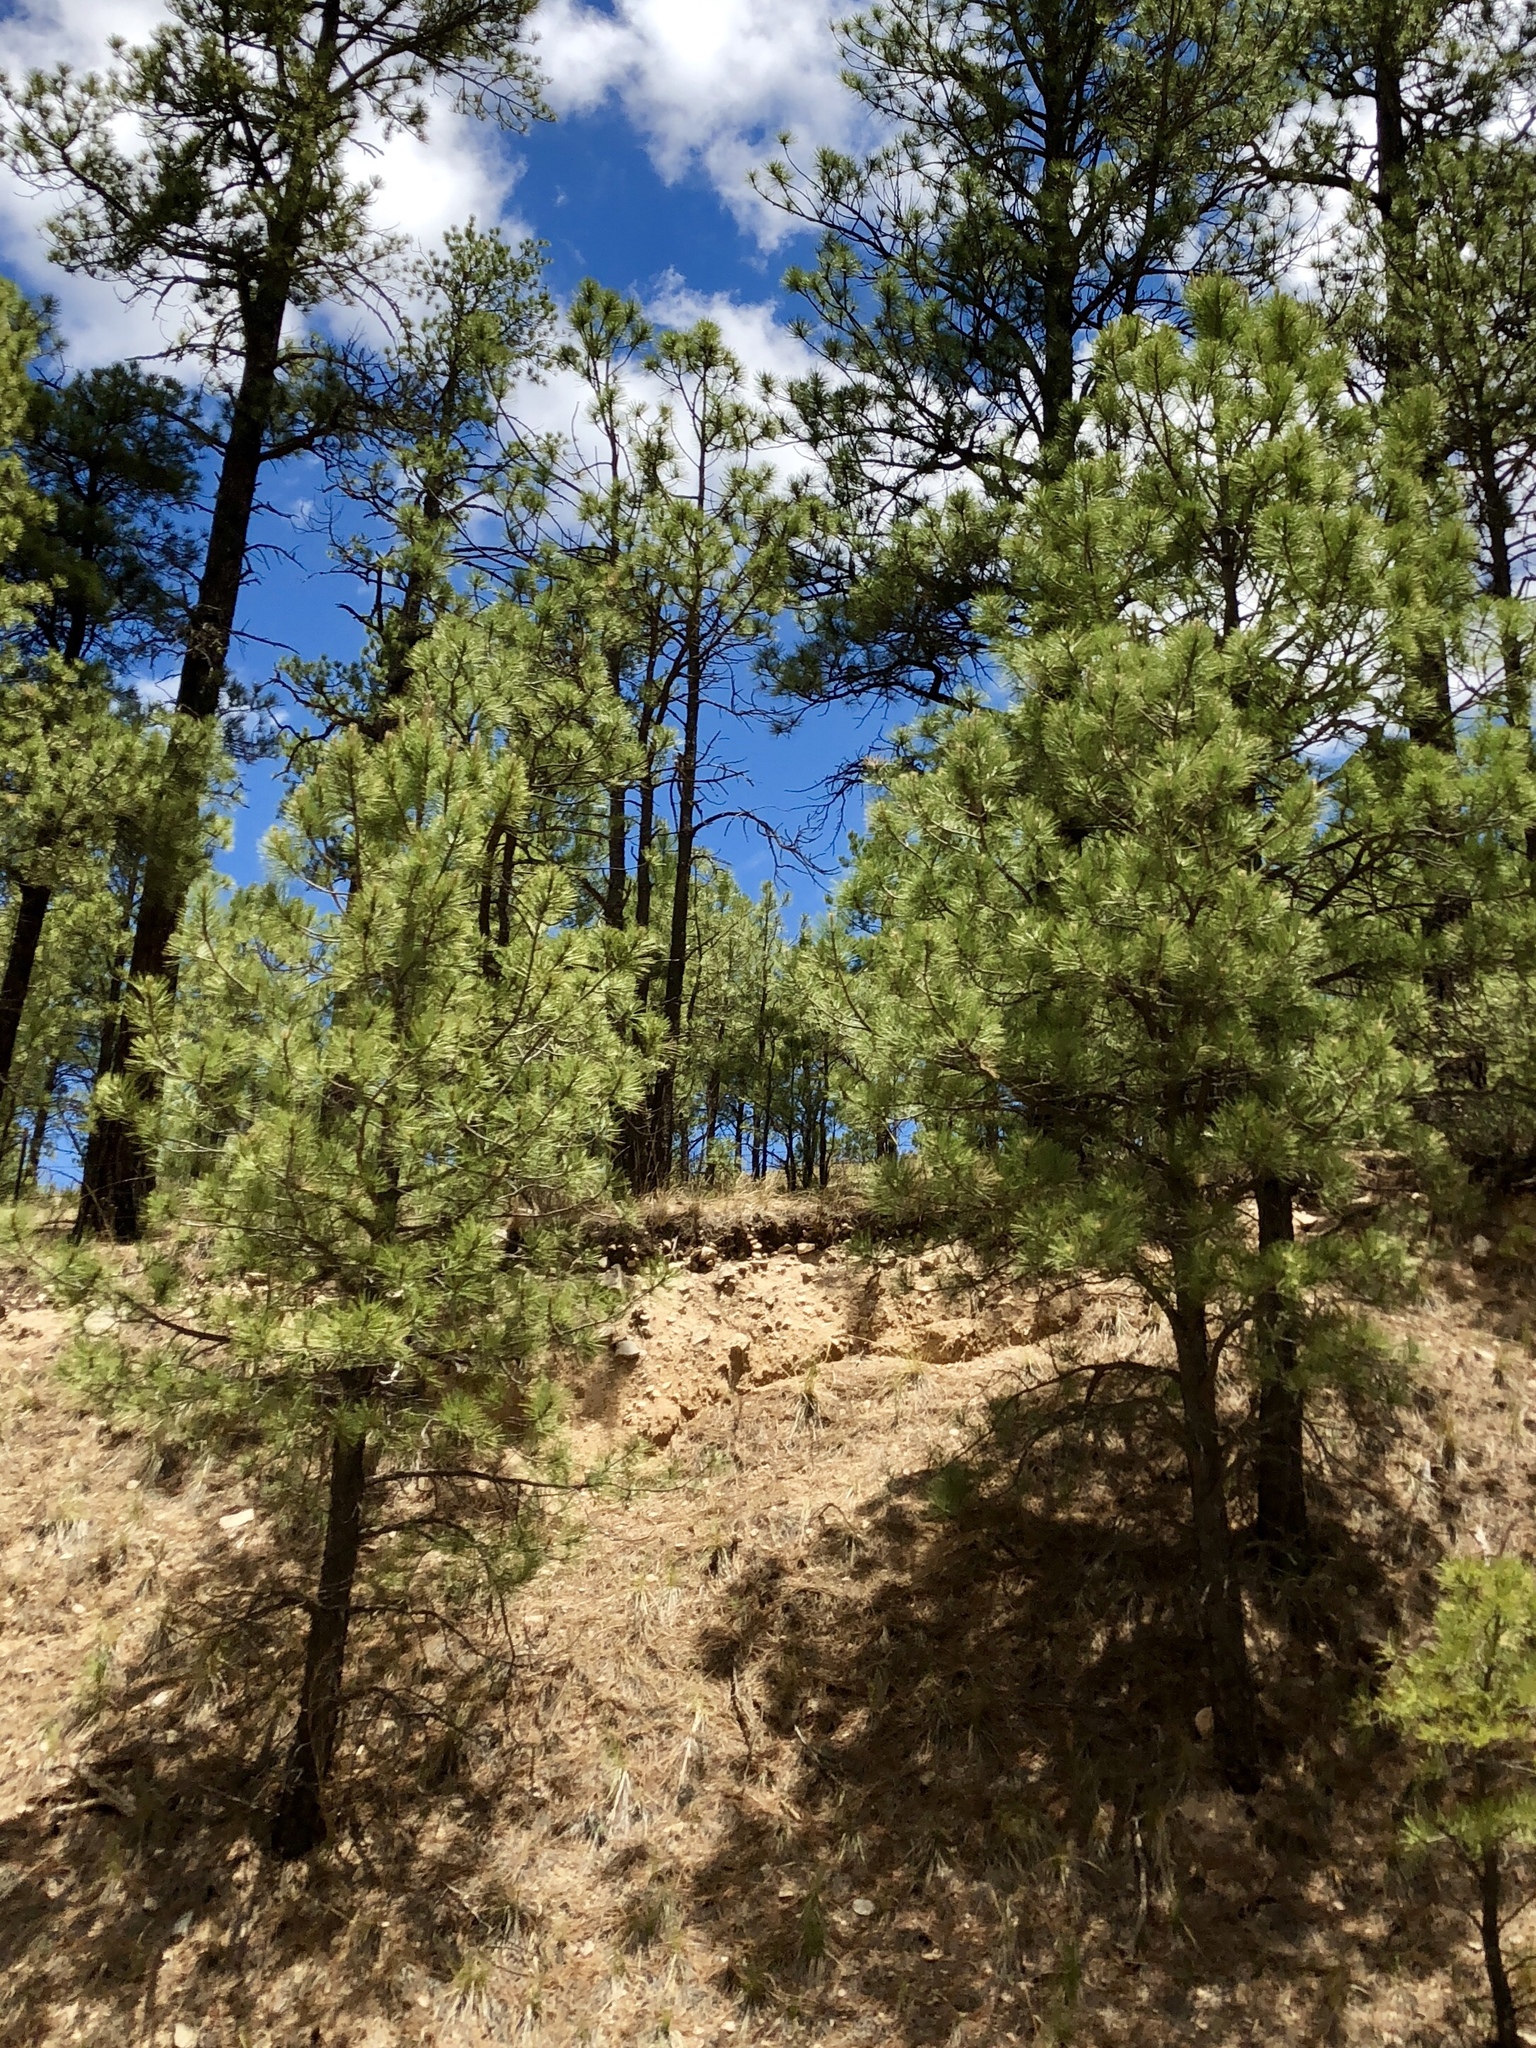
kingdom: Plantae
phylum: Tracheophyta
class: Pinopsida
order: Pinales
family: Pinaceae
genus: Pinus
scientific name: Pinus ponderosa
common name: Western yellow-pine
